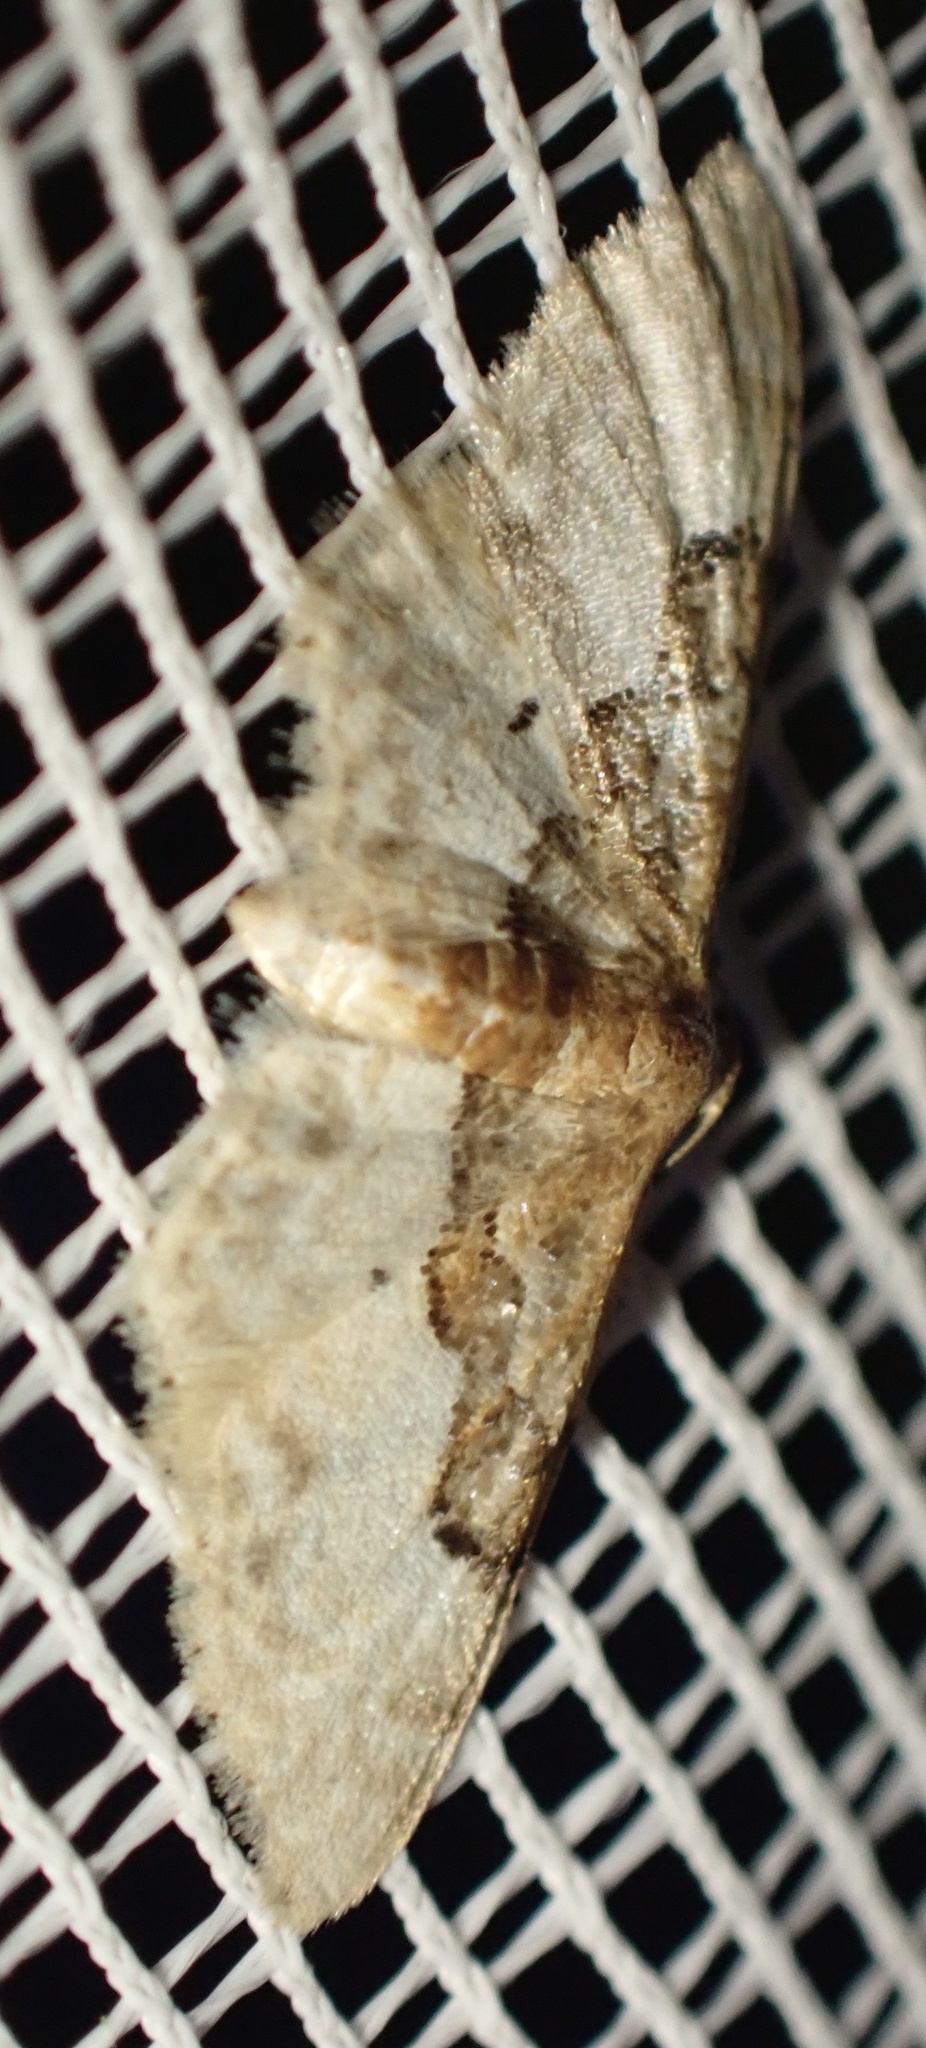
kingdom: Animalia
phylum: Arthropoda
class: Insecta
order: Lepidoptera
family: Geometridae
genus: Idaea
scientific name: Idaea completa
